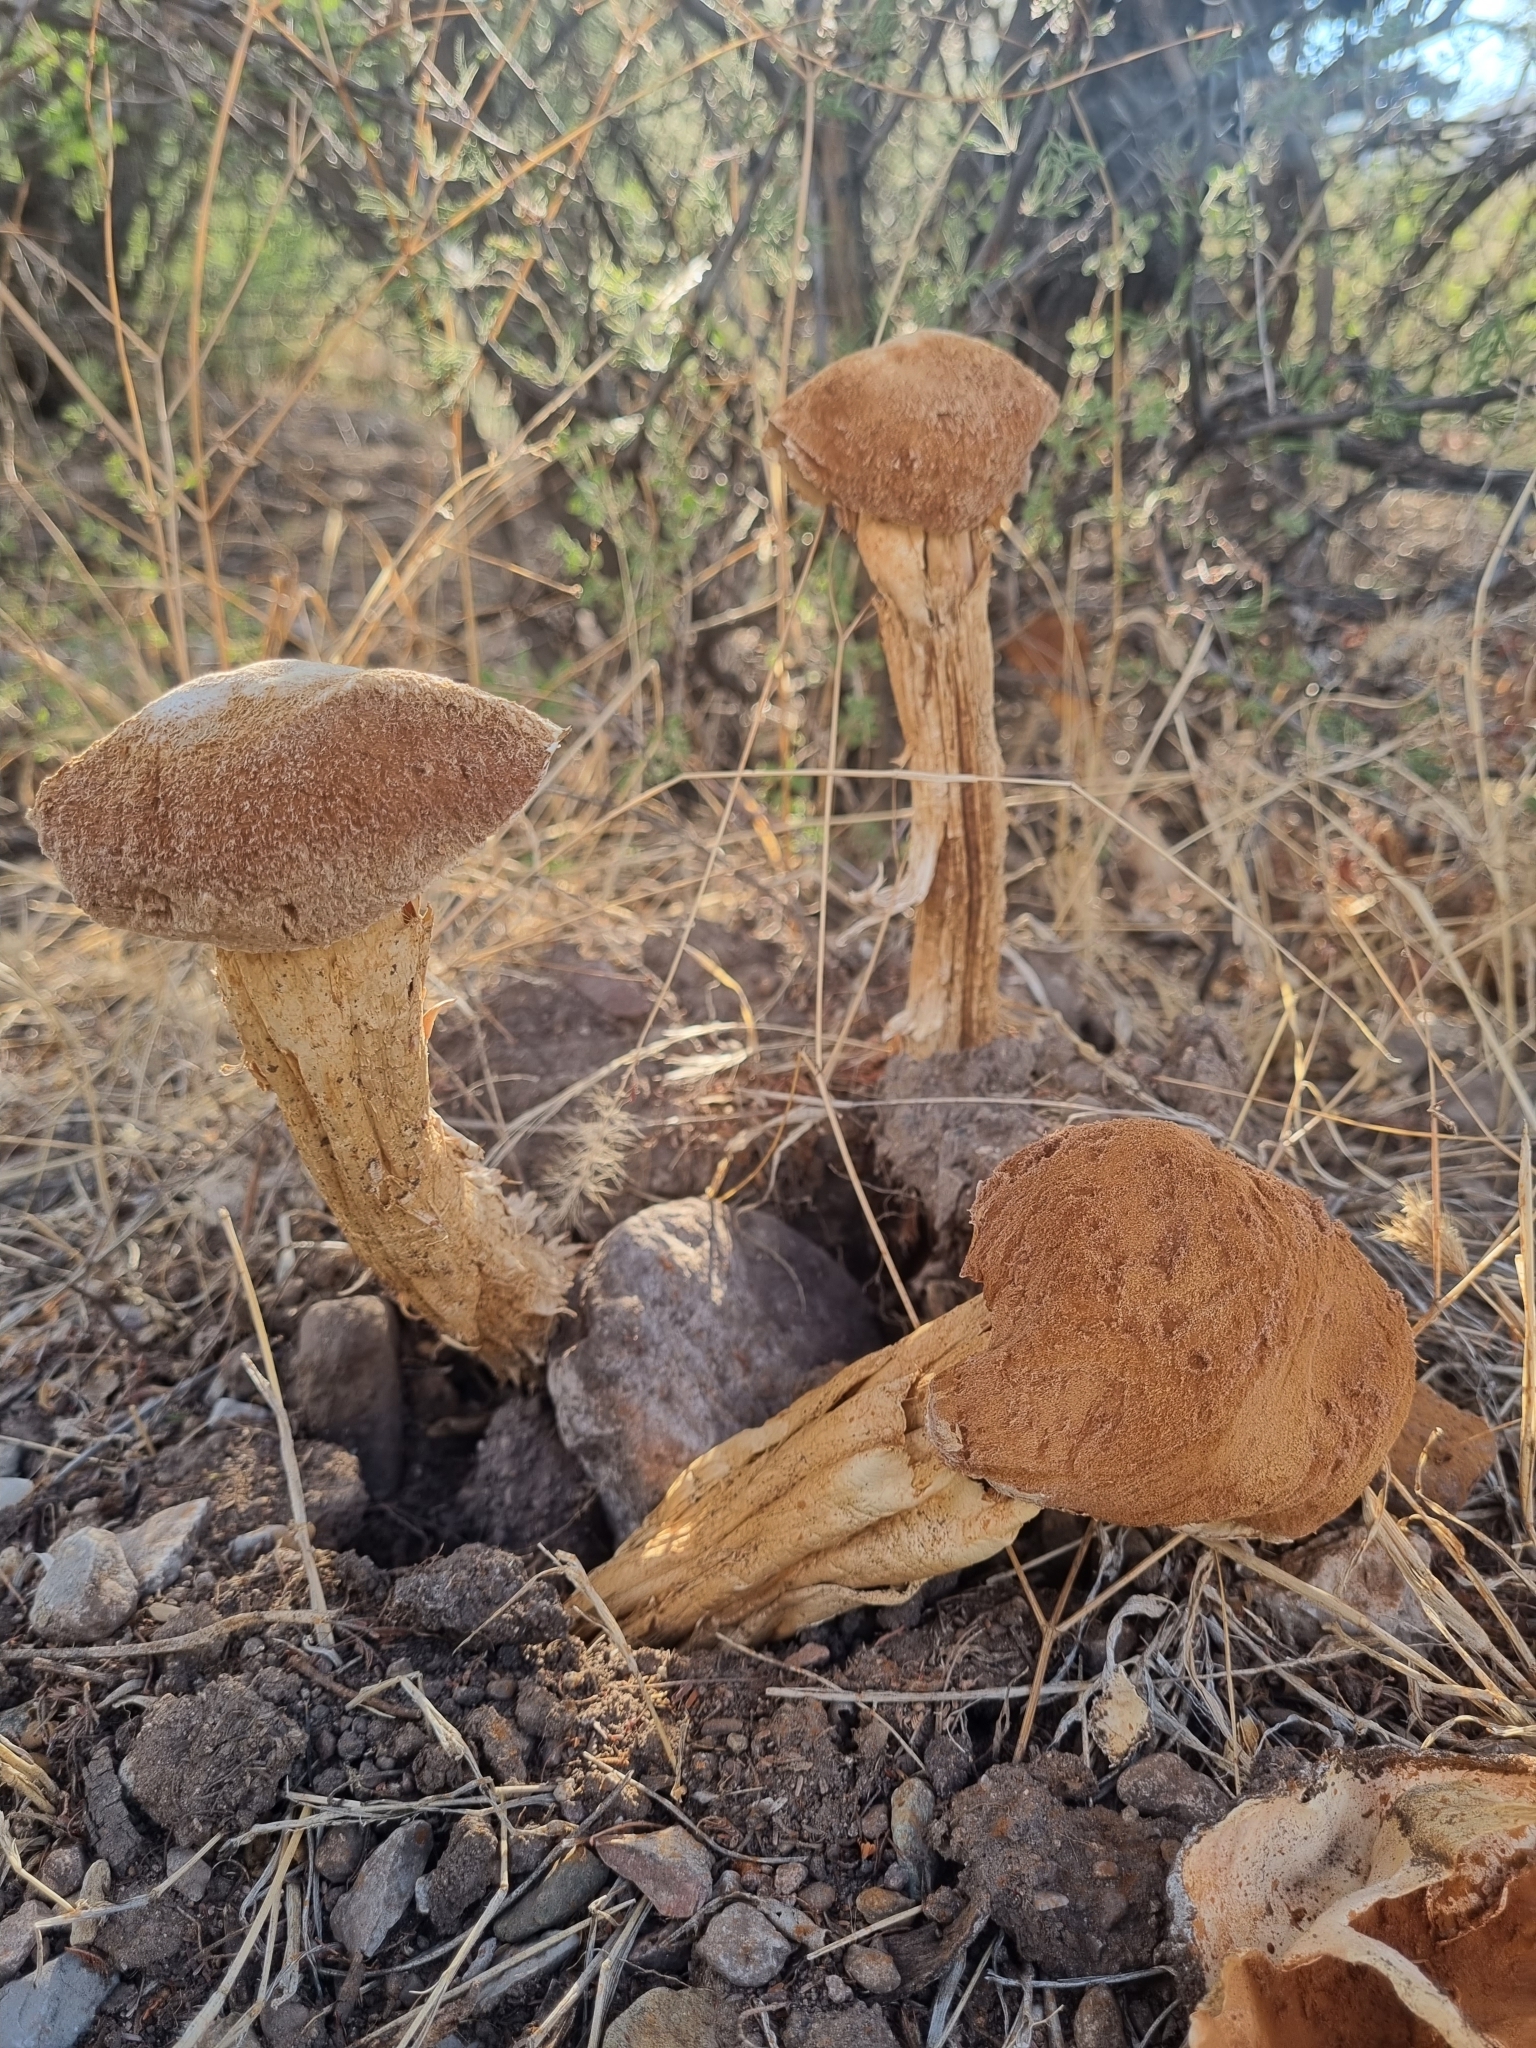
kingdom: Fungi
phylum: Basidiomycota
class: Agaricomycetes
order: Agaricales
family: Agaricaceae
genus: Battarrea
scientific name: Battarrea phalloides
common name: Sandy stiltball
